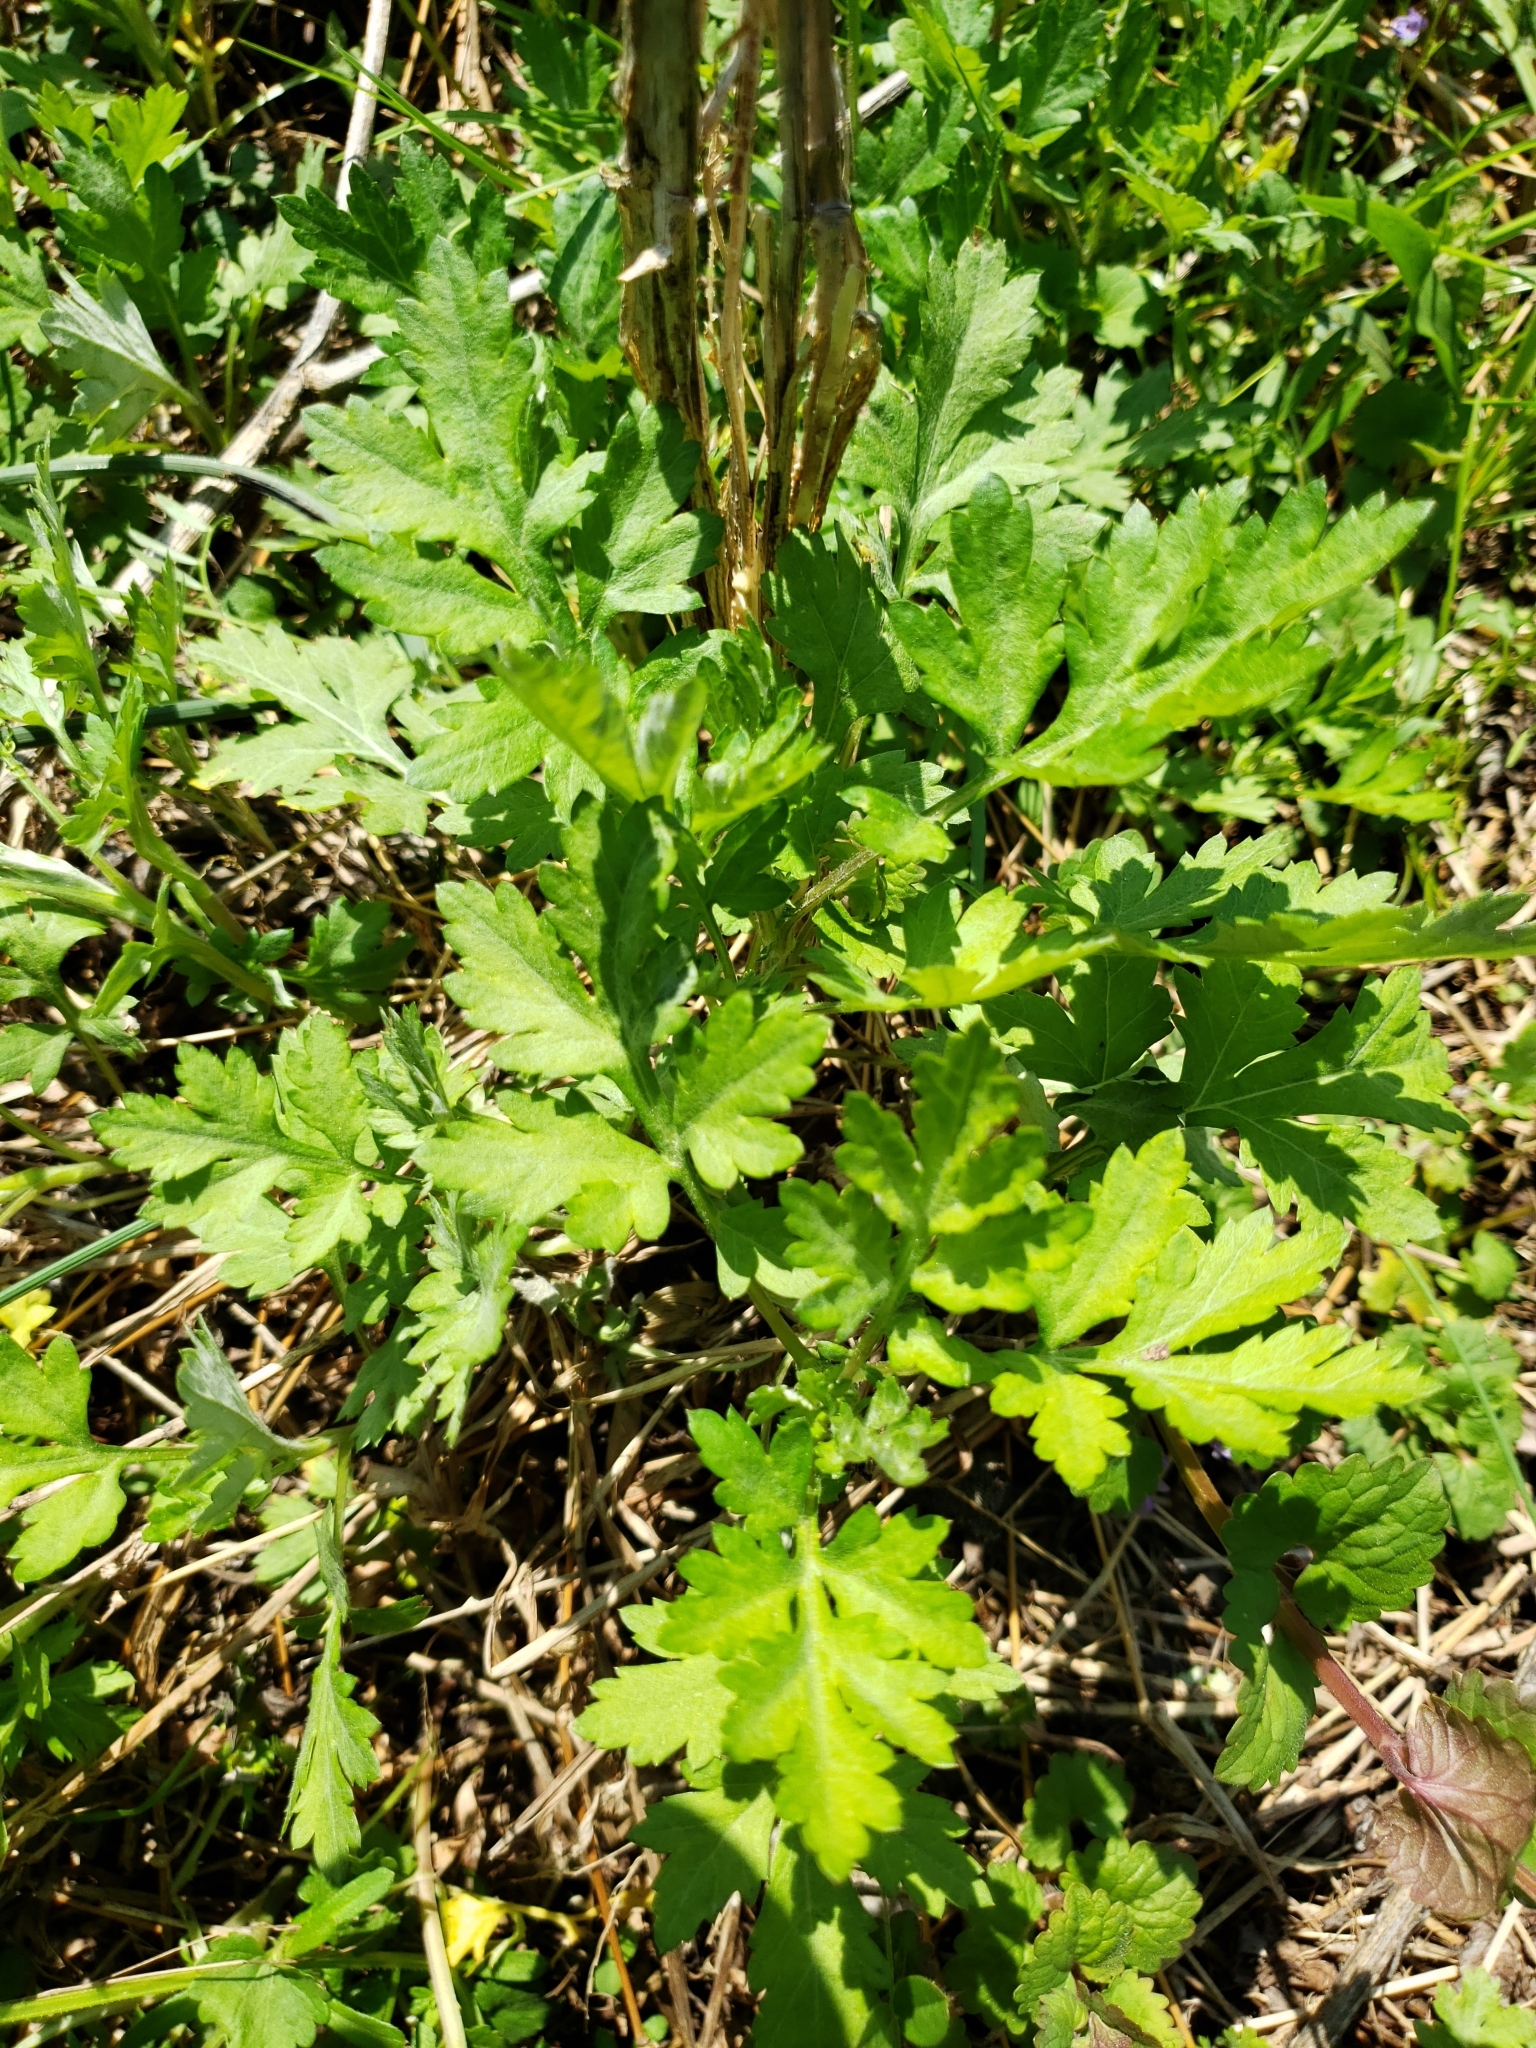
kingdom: Plantae
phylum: Tracheophyta
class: Magnoliopsida
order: Asterales
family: Asteraceae
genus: Artemisia
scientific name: Artemisia vulgaris
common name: Mugwort
